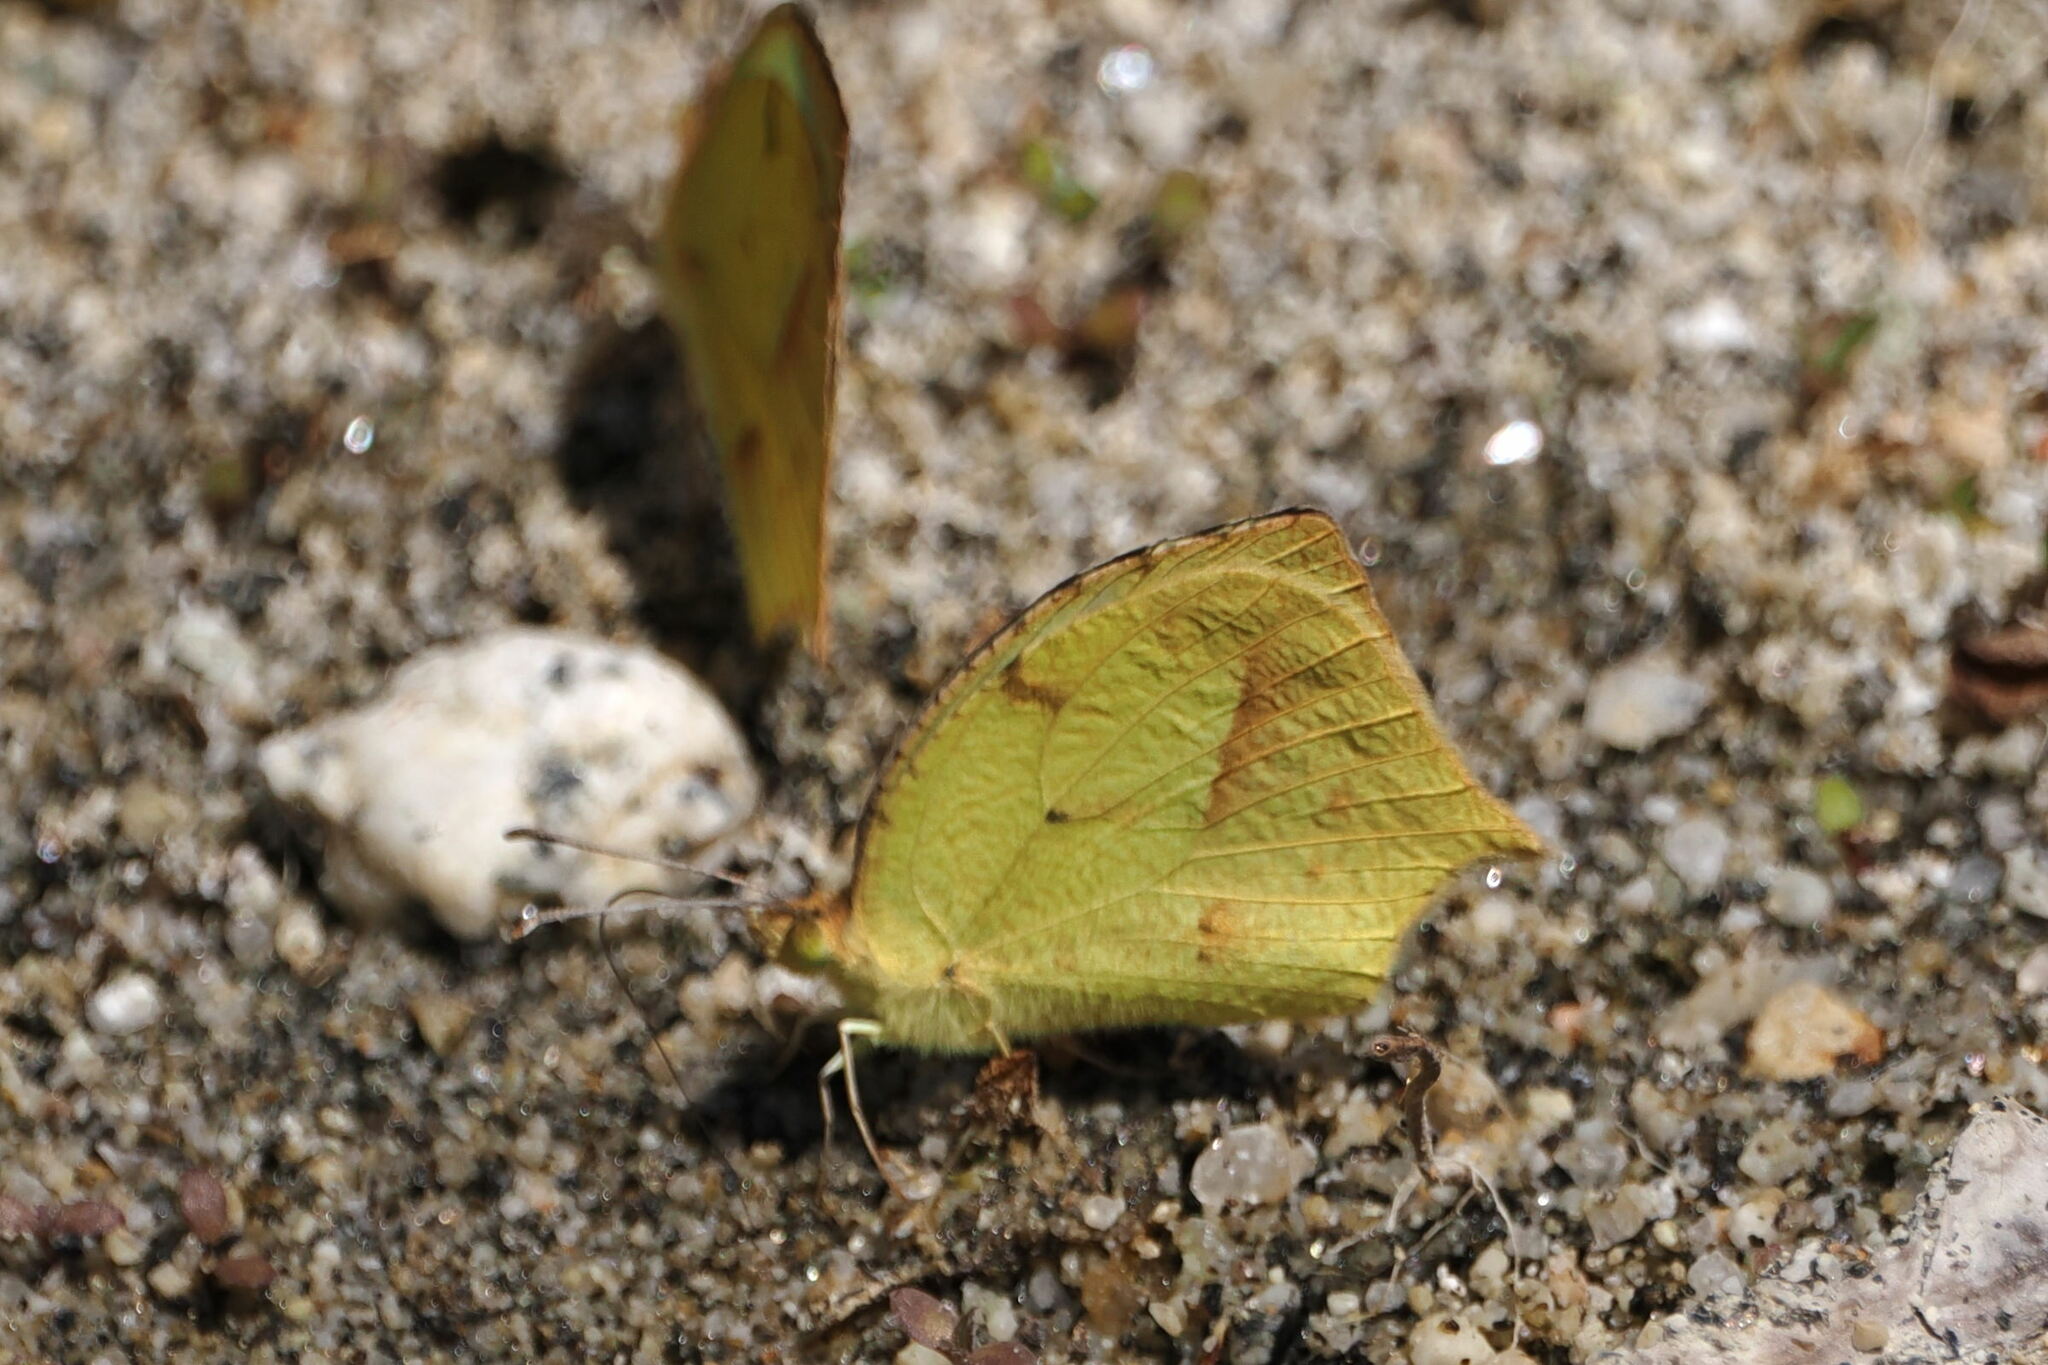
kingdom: Animalia
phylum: Arthropoda
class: Insecta
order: Lepidoptera
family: Pieridae
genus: Abaeis
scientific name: Abaeis mexicana
